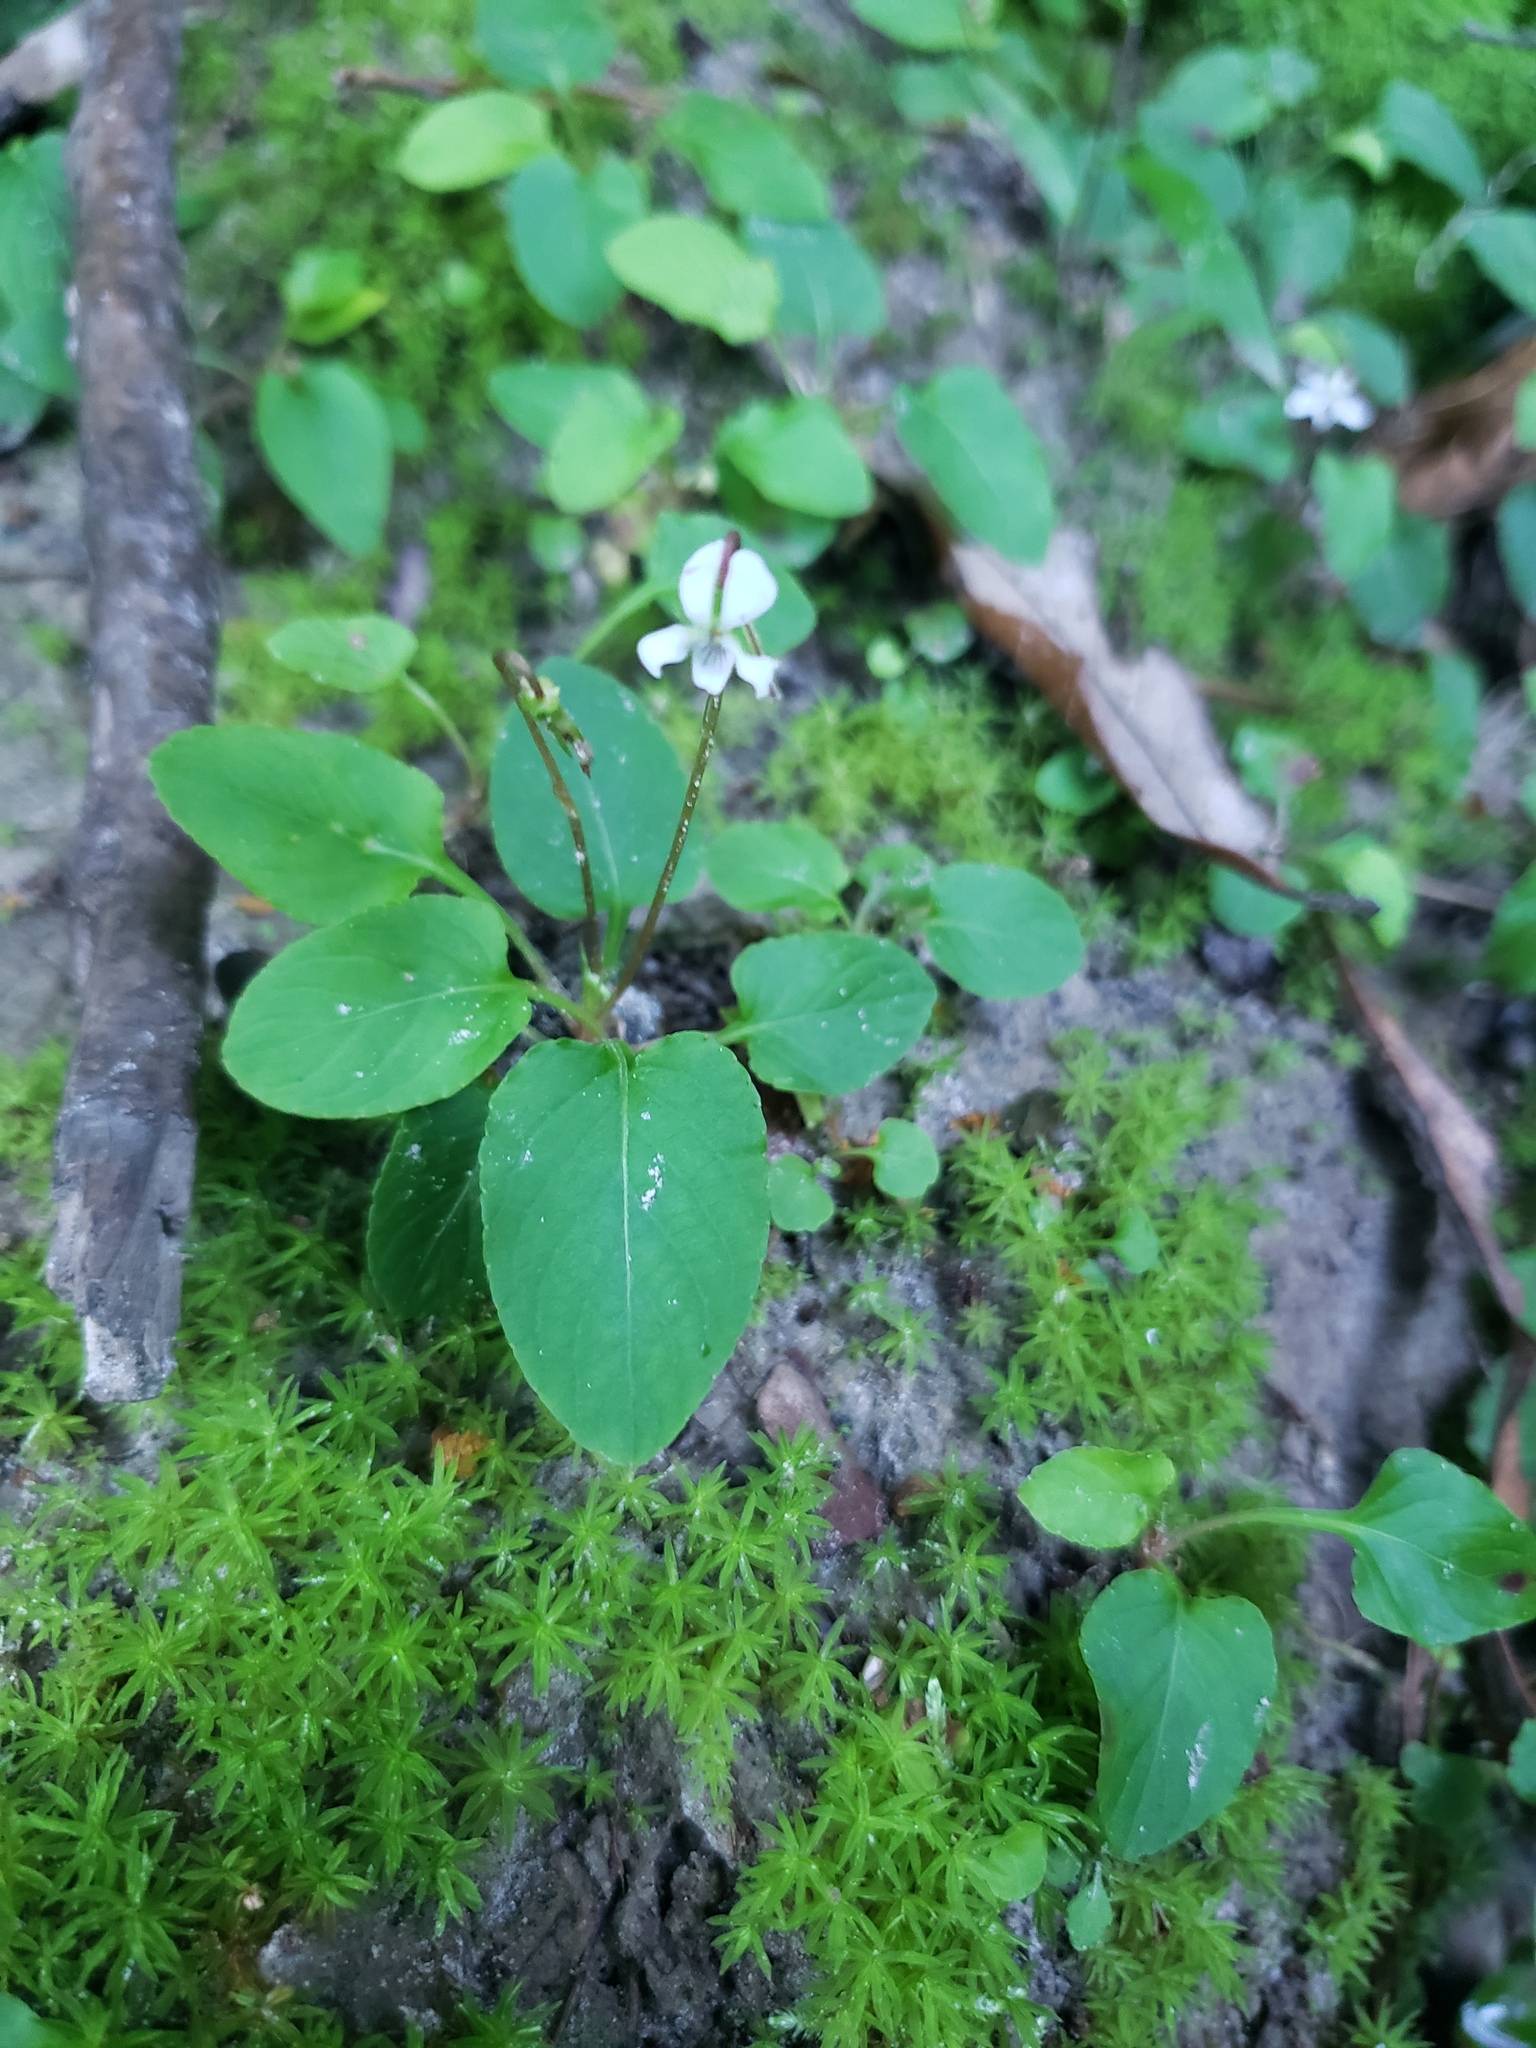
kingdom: Plantae
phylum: Tracheophyta
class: Magnoliopsida
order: Malpighiales
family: Violaceae
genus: Viola
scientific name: Viola primulifolia
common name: Primrose-leaf violet
